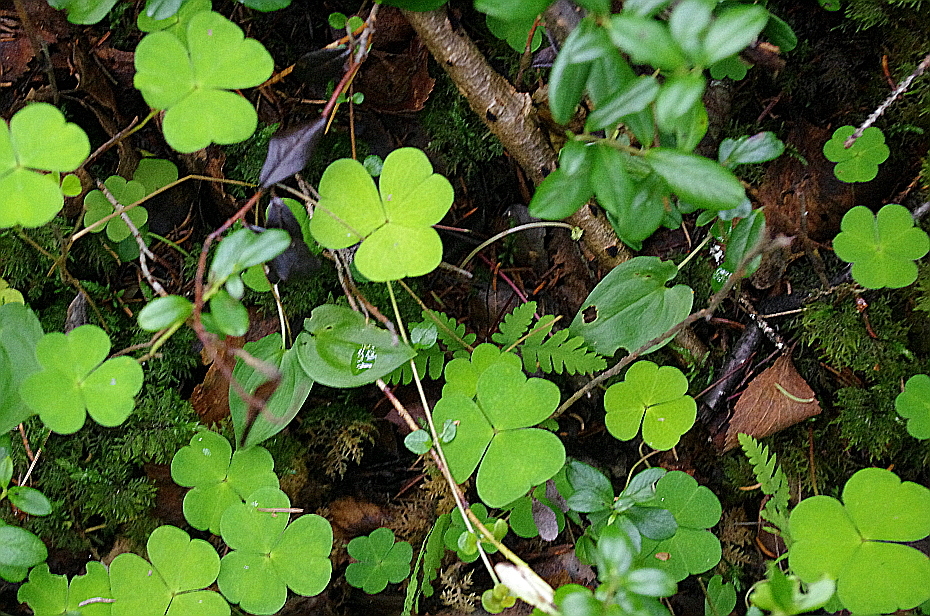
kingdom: Plantae
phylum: Tracheophyta
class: Magnoliopsida
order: Oxalidales
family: Oxalidaceae
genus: Oxalis
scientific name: Oxalis acetosella
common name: Wood-sorrel
